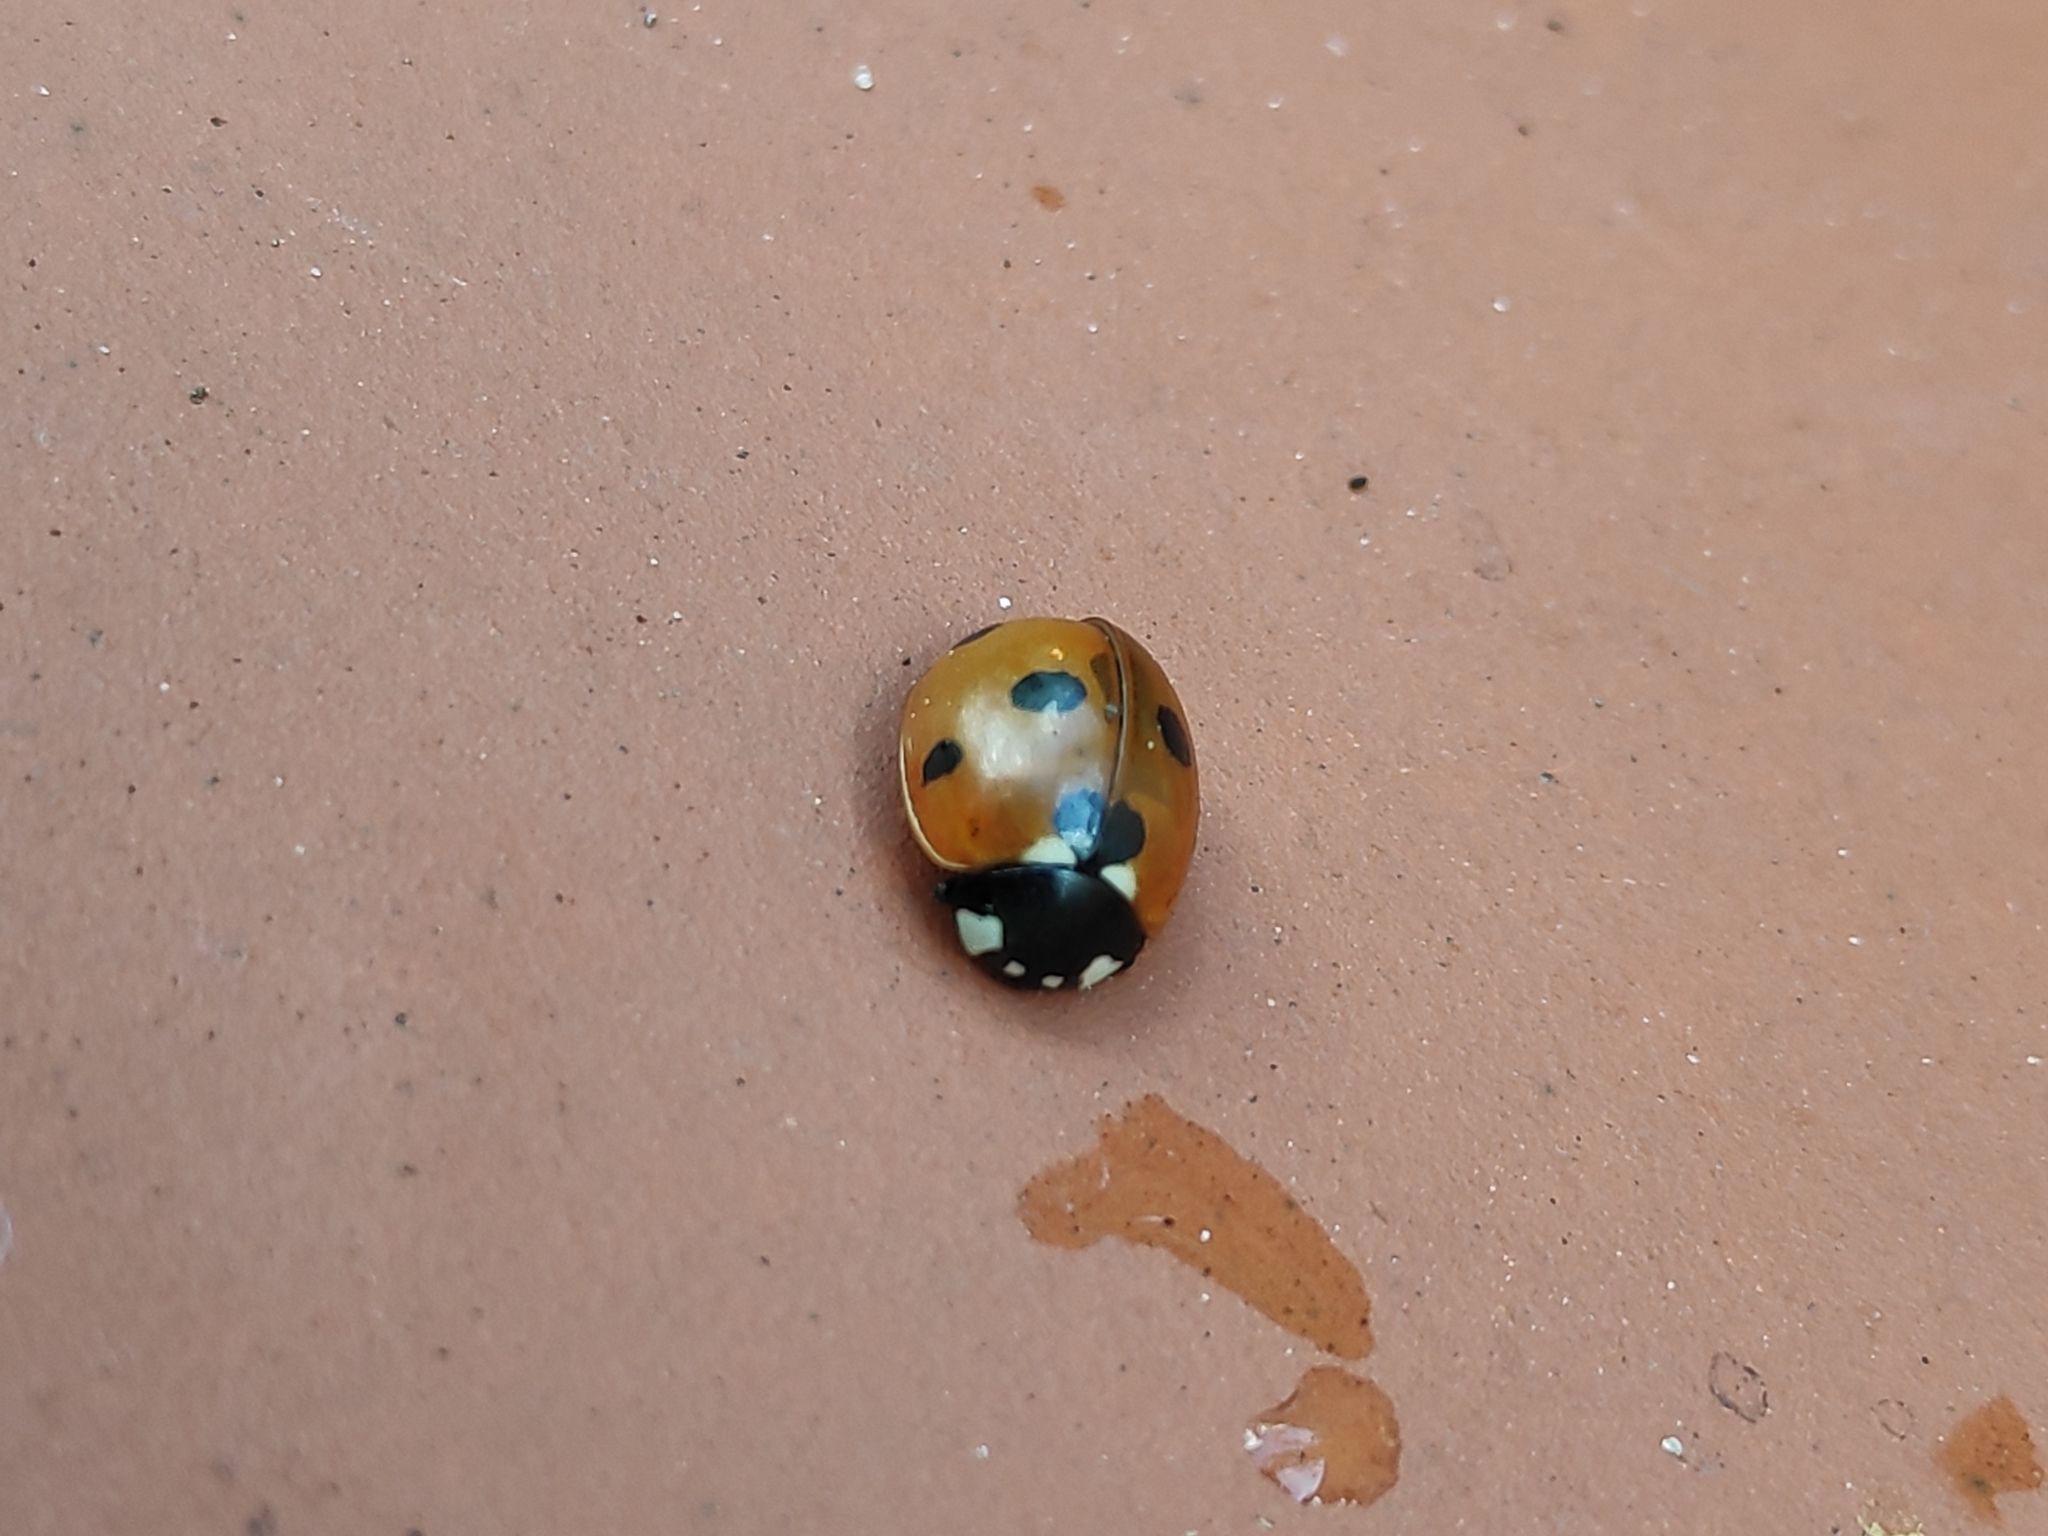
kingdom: Animalia
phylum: Arthropoda
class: Insecta
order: Coleoptera
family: Coccinellidae
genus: Coccinella
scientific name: Coccinella septempunctata
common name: Sevenspotted lady beetle
